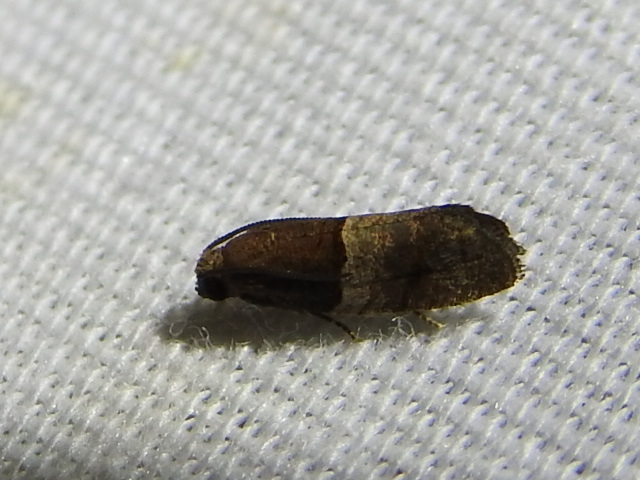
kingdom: Animalia
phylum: Arthropoda
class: Insecta
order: Lepidoptera
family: Tortricidae
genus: Larisa
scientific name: Larisa subsolana
